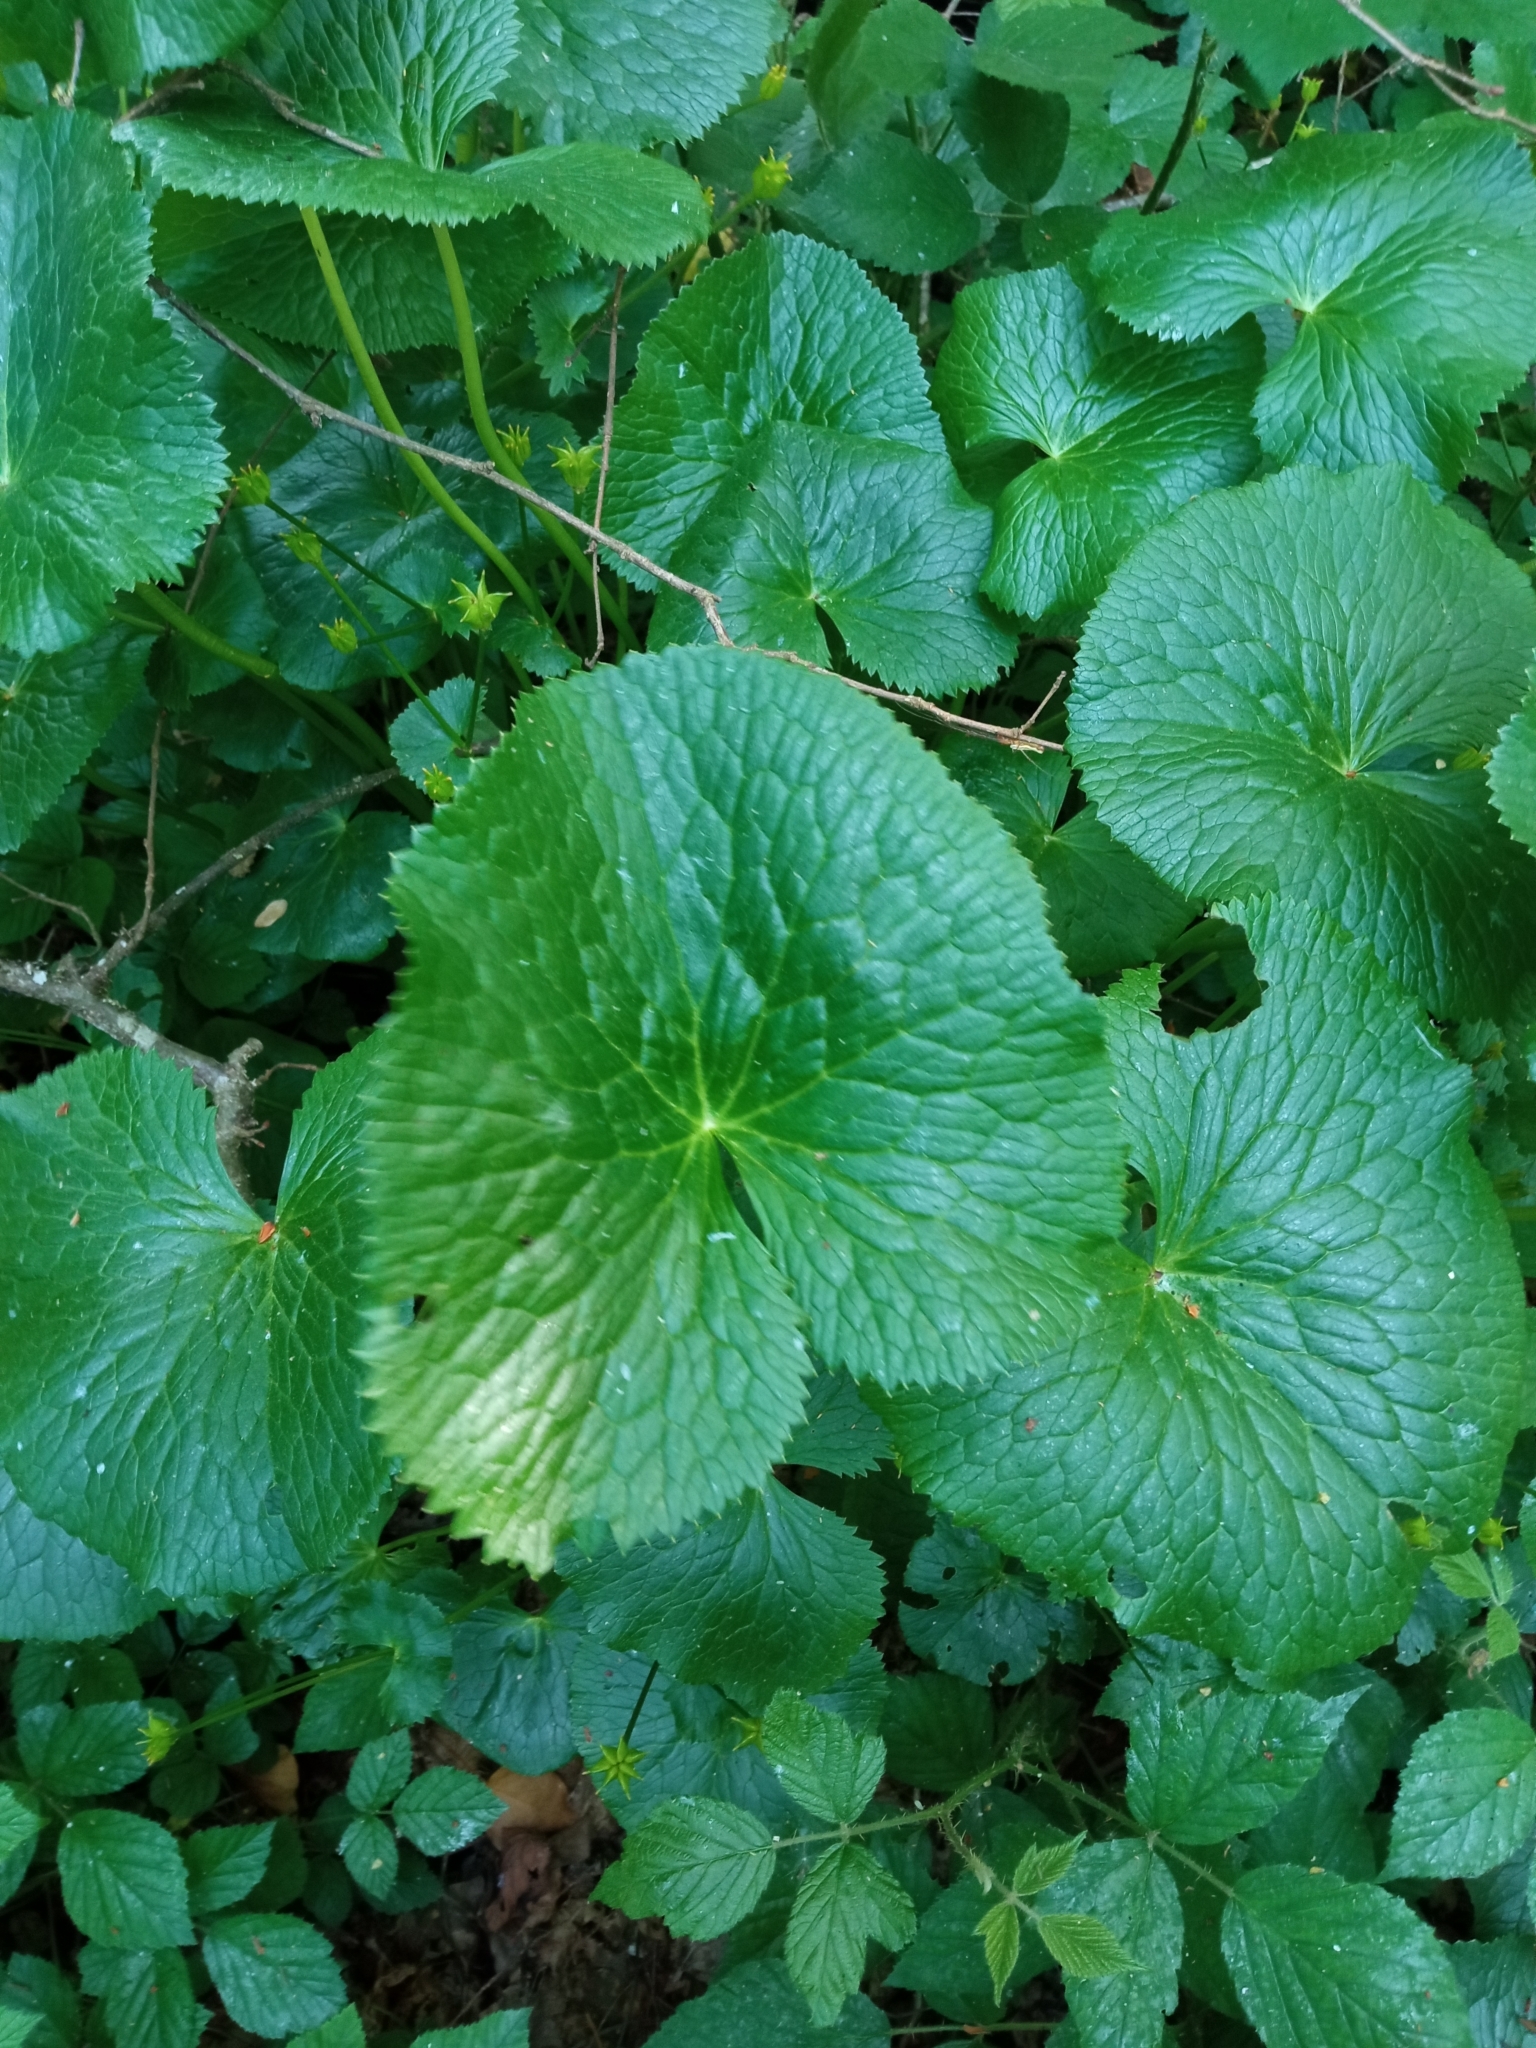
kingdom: Plantae
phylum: Tracheophyta
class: Magnoliopsida
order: Ranunculales
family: Ranunculaceae
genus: Caltha
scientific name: Caltha palustris
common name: Marsh marigold
